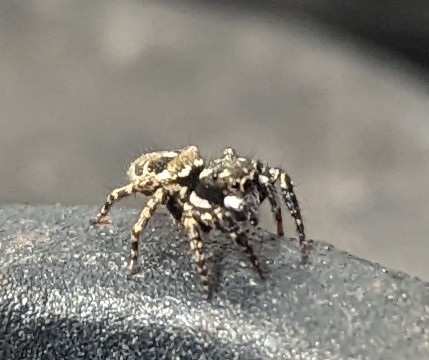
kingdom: Animalia
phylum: Arthropoda
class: Arachnida
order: Araneae
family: Salticidae
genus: Anasaitis
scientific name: Anasaitis canosa
